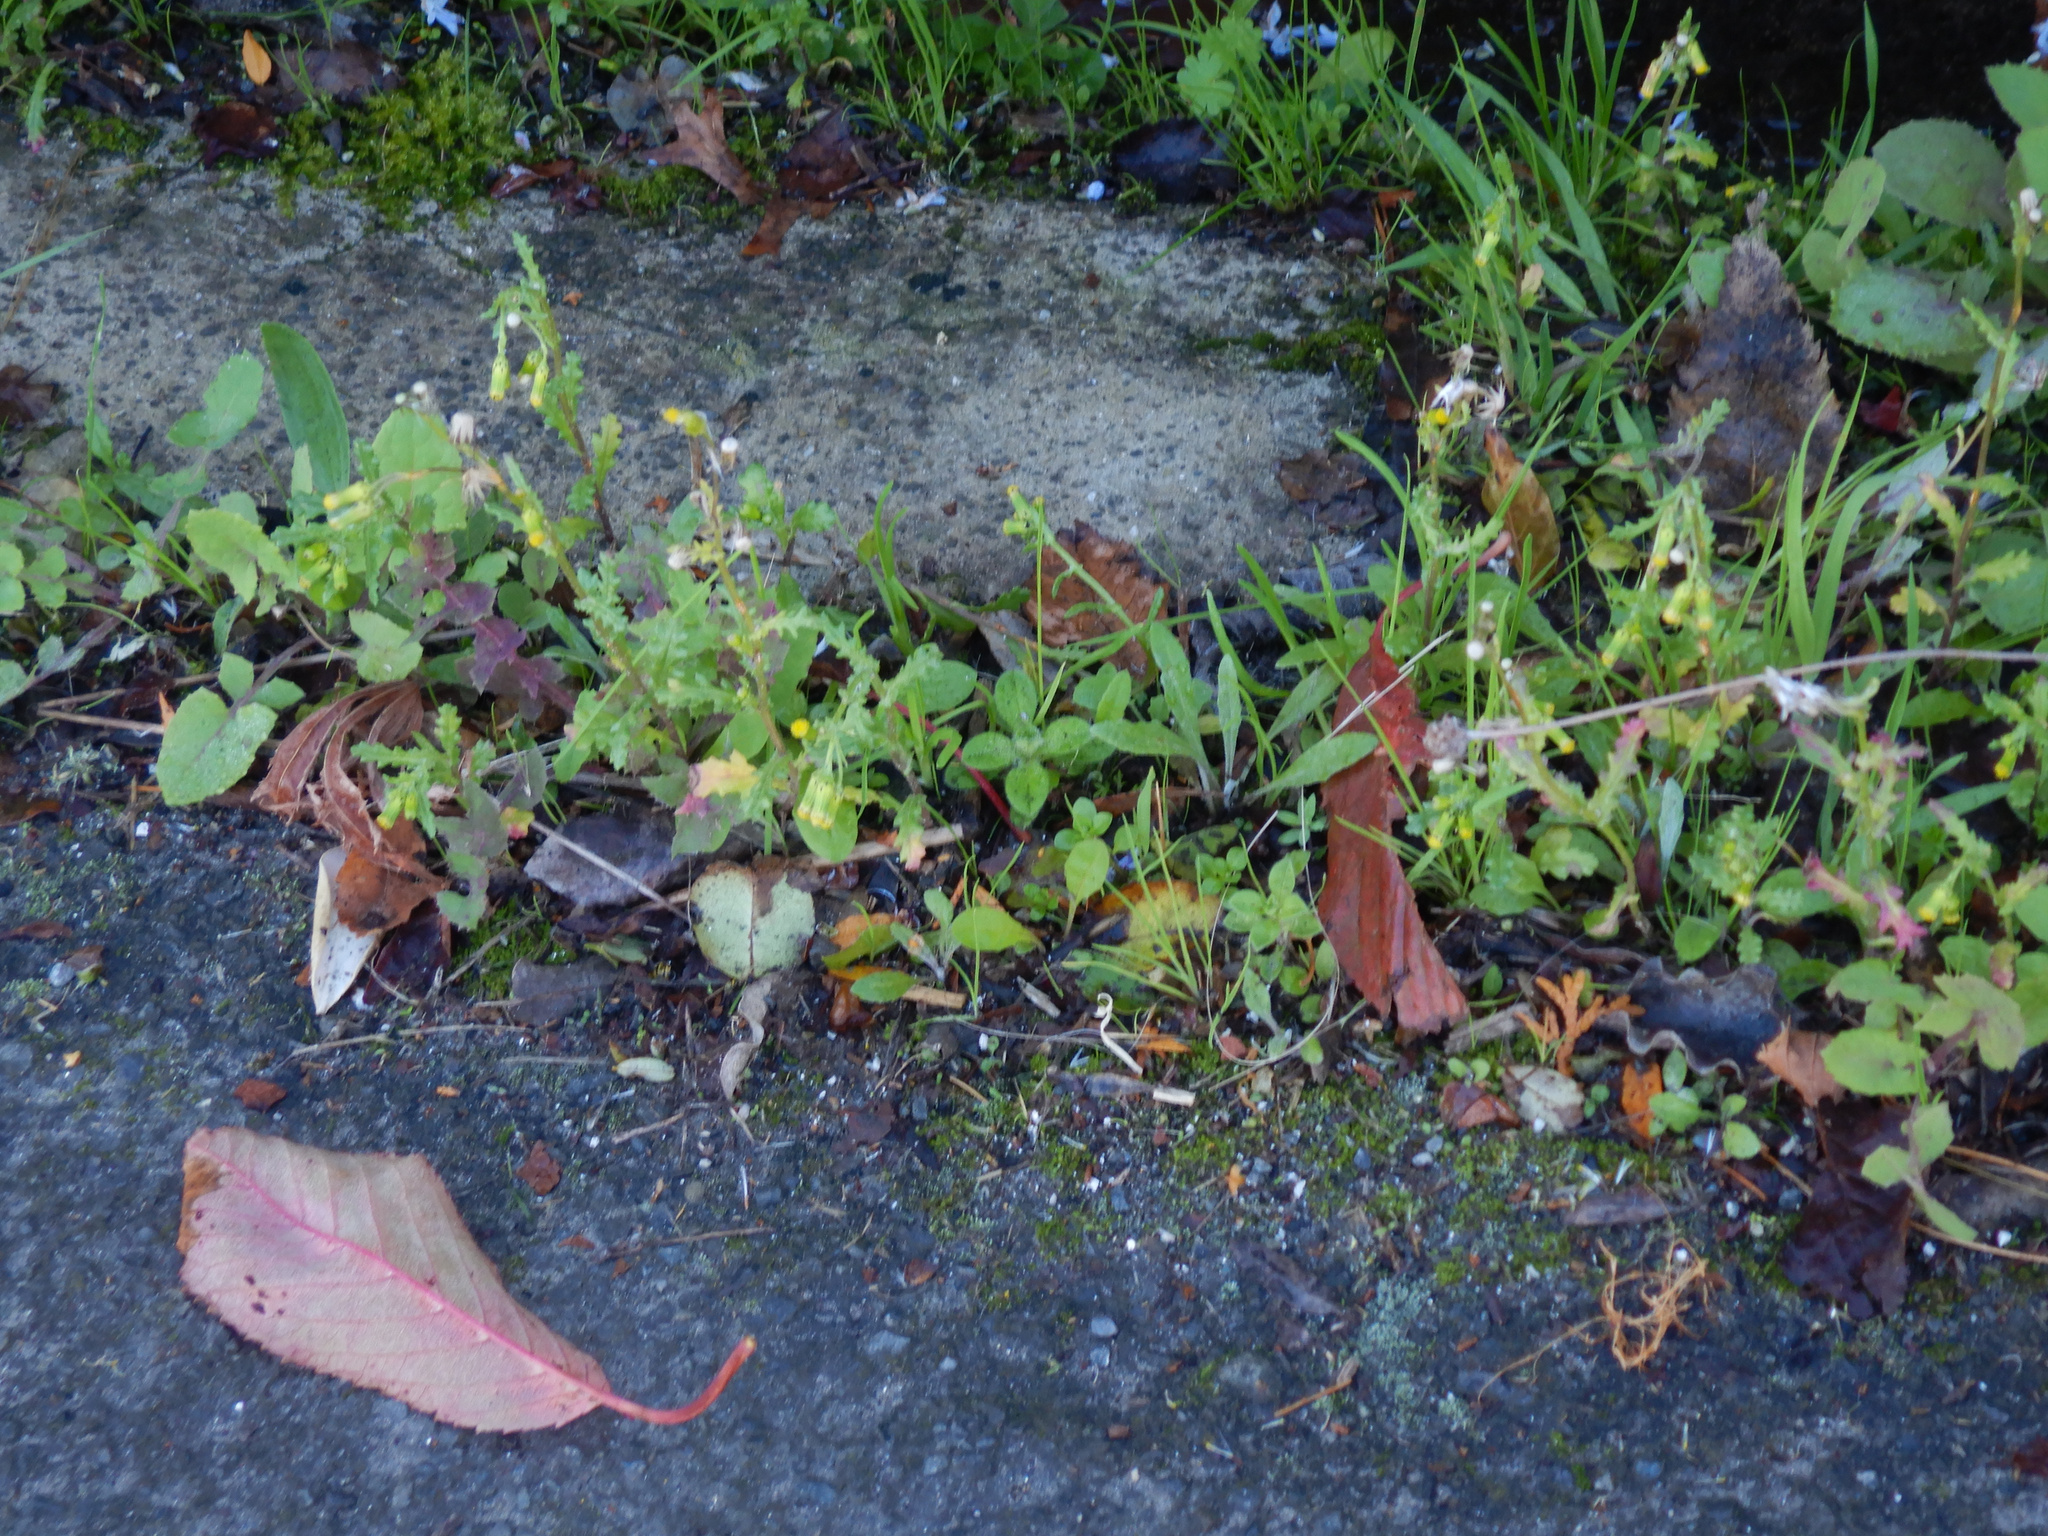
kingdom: Plantae
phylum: Tracheophyta
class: Magnoliopsida
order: Asterales
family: Asteraceae
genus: Senecio
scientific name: Senecio vulgaris
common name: Old-man-in-the-spring
